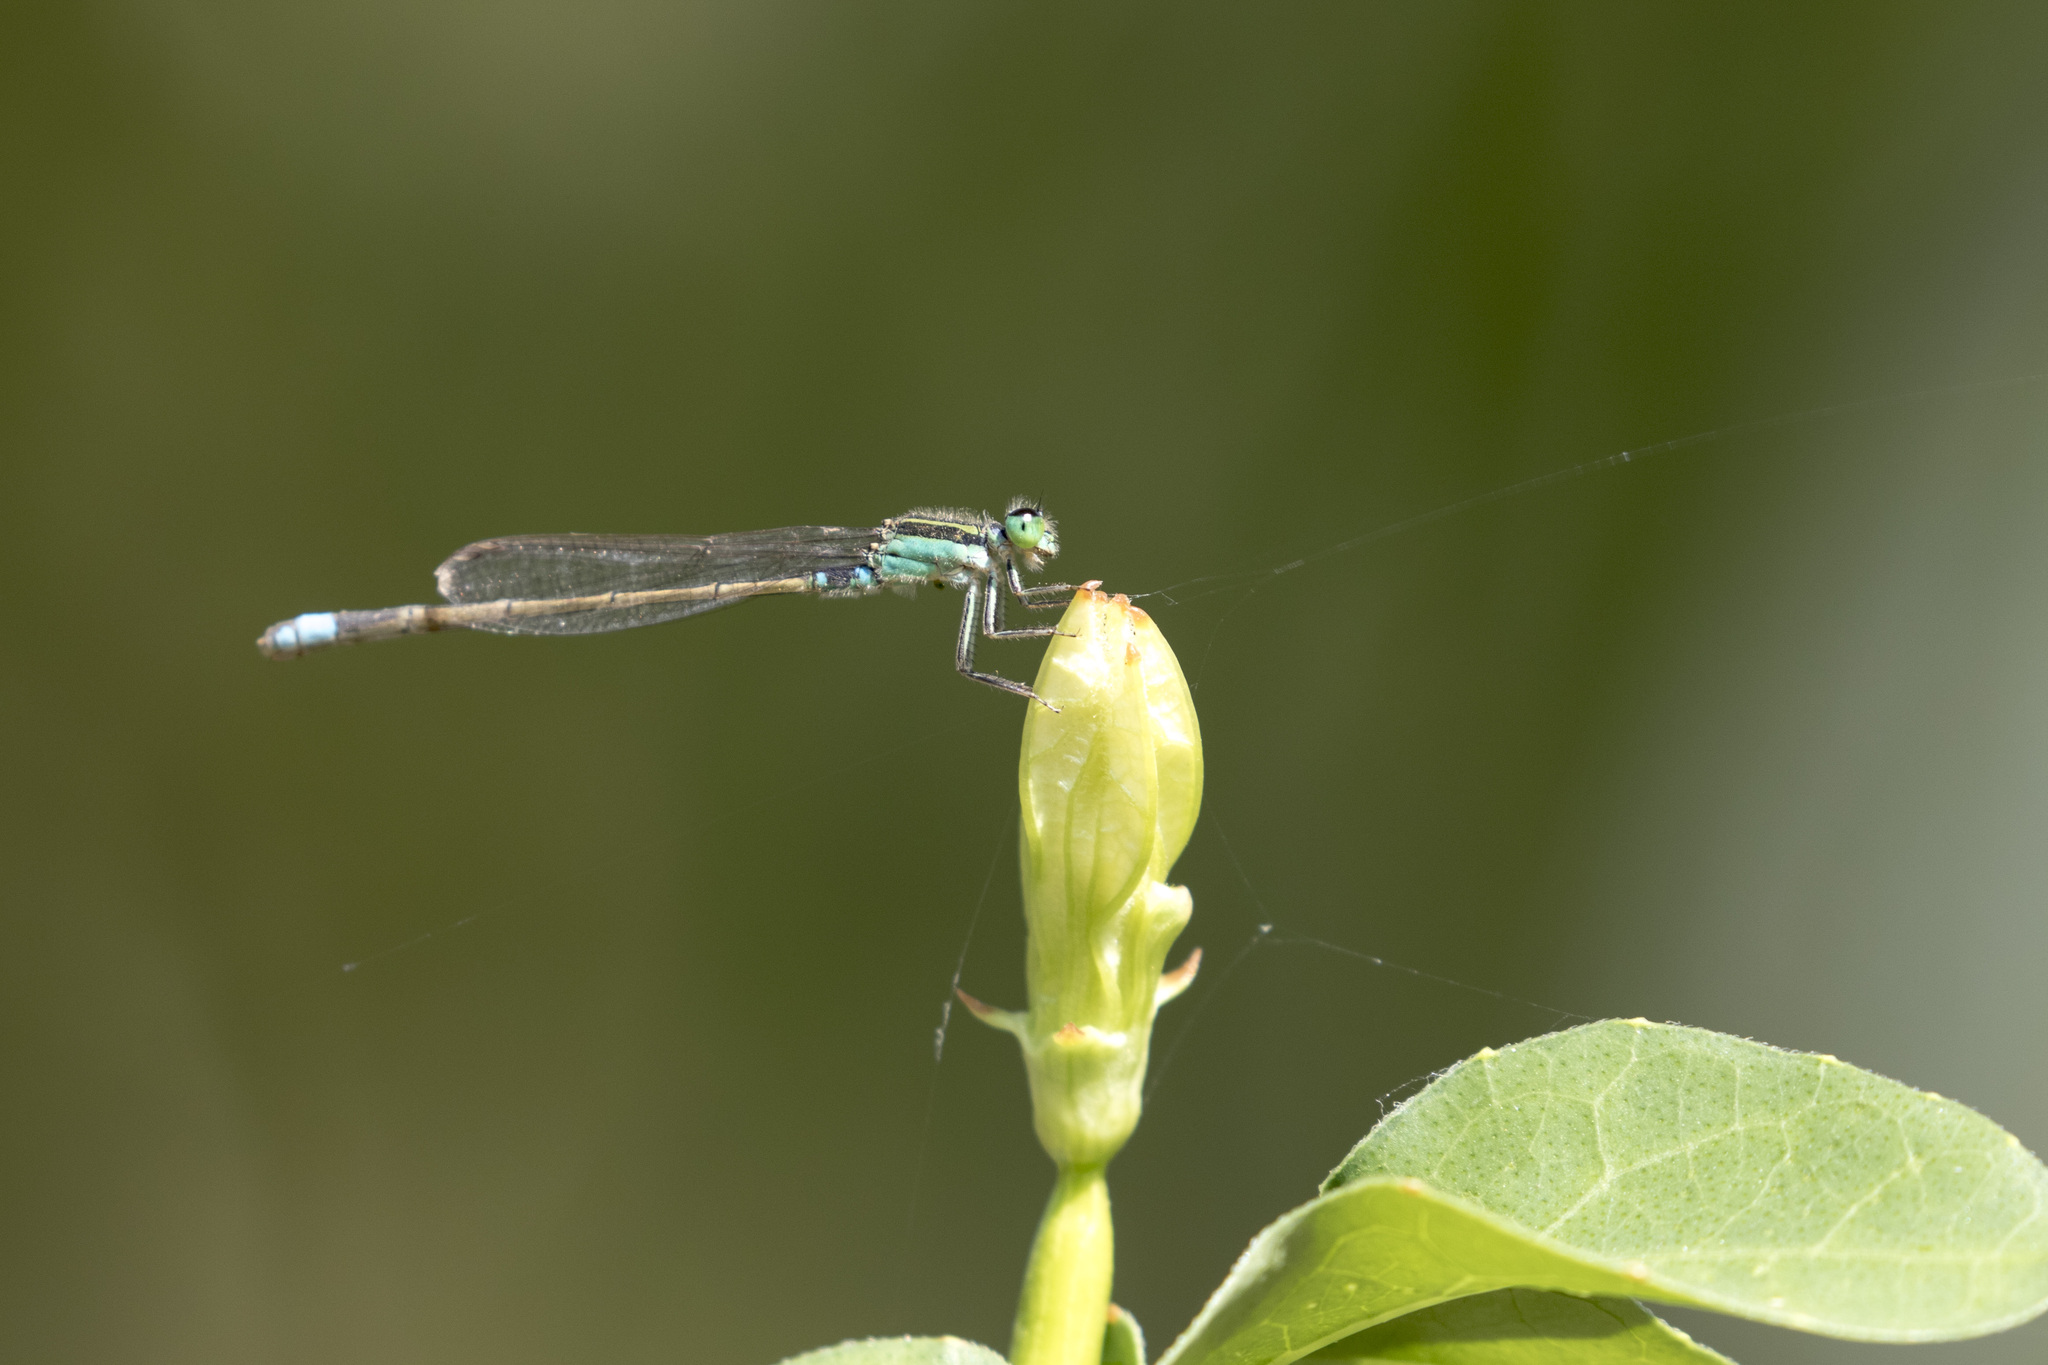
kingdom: Animalia
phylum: Arthropoda
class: Insecta
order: Odonata
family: Coenagrionidae
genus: Ischnura
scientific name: Ischnura senegalensis
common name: Tropical bluetail
